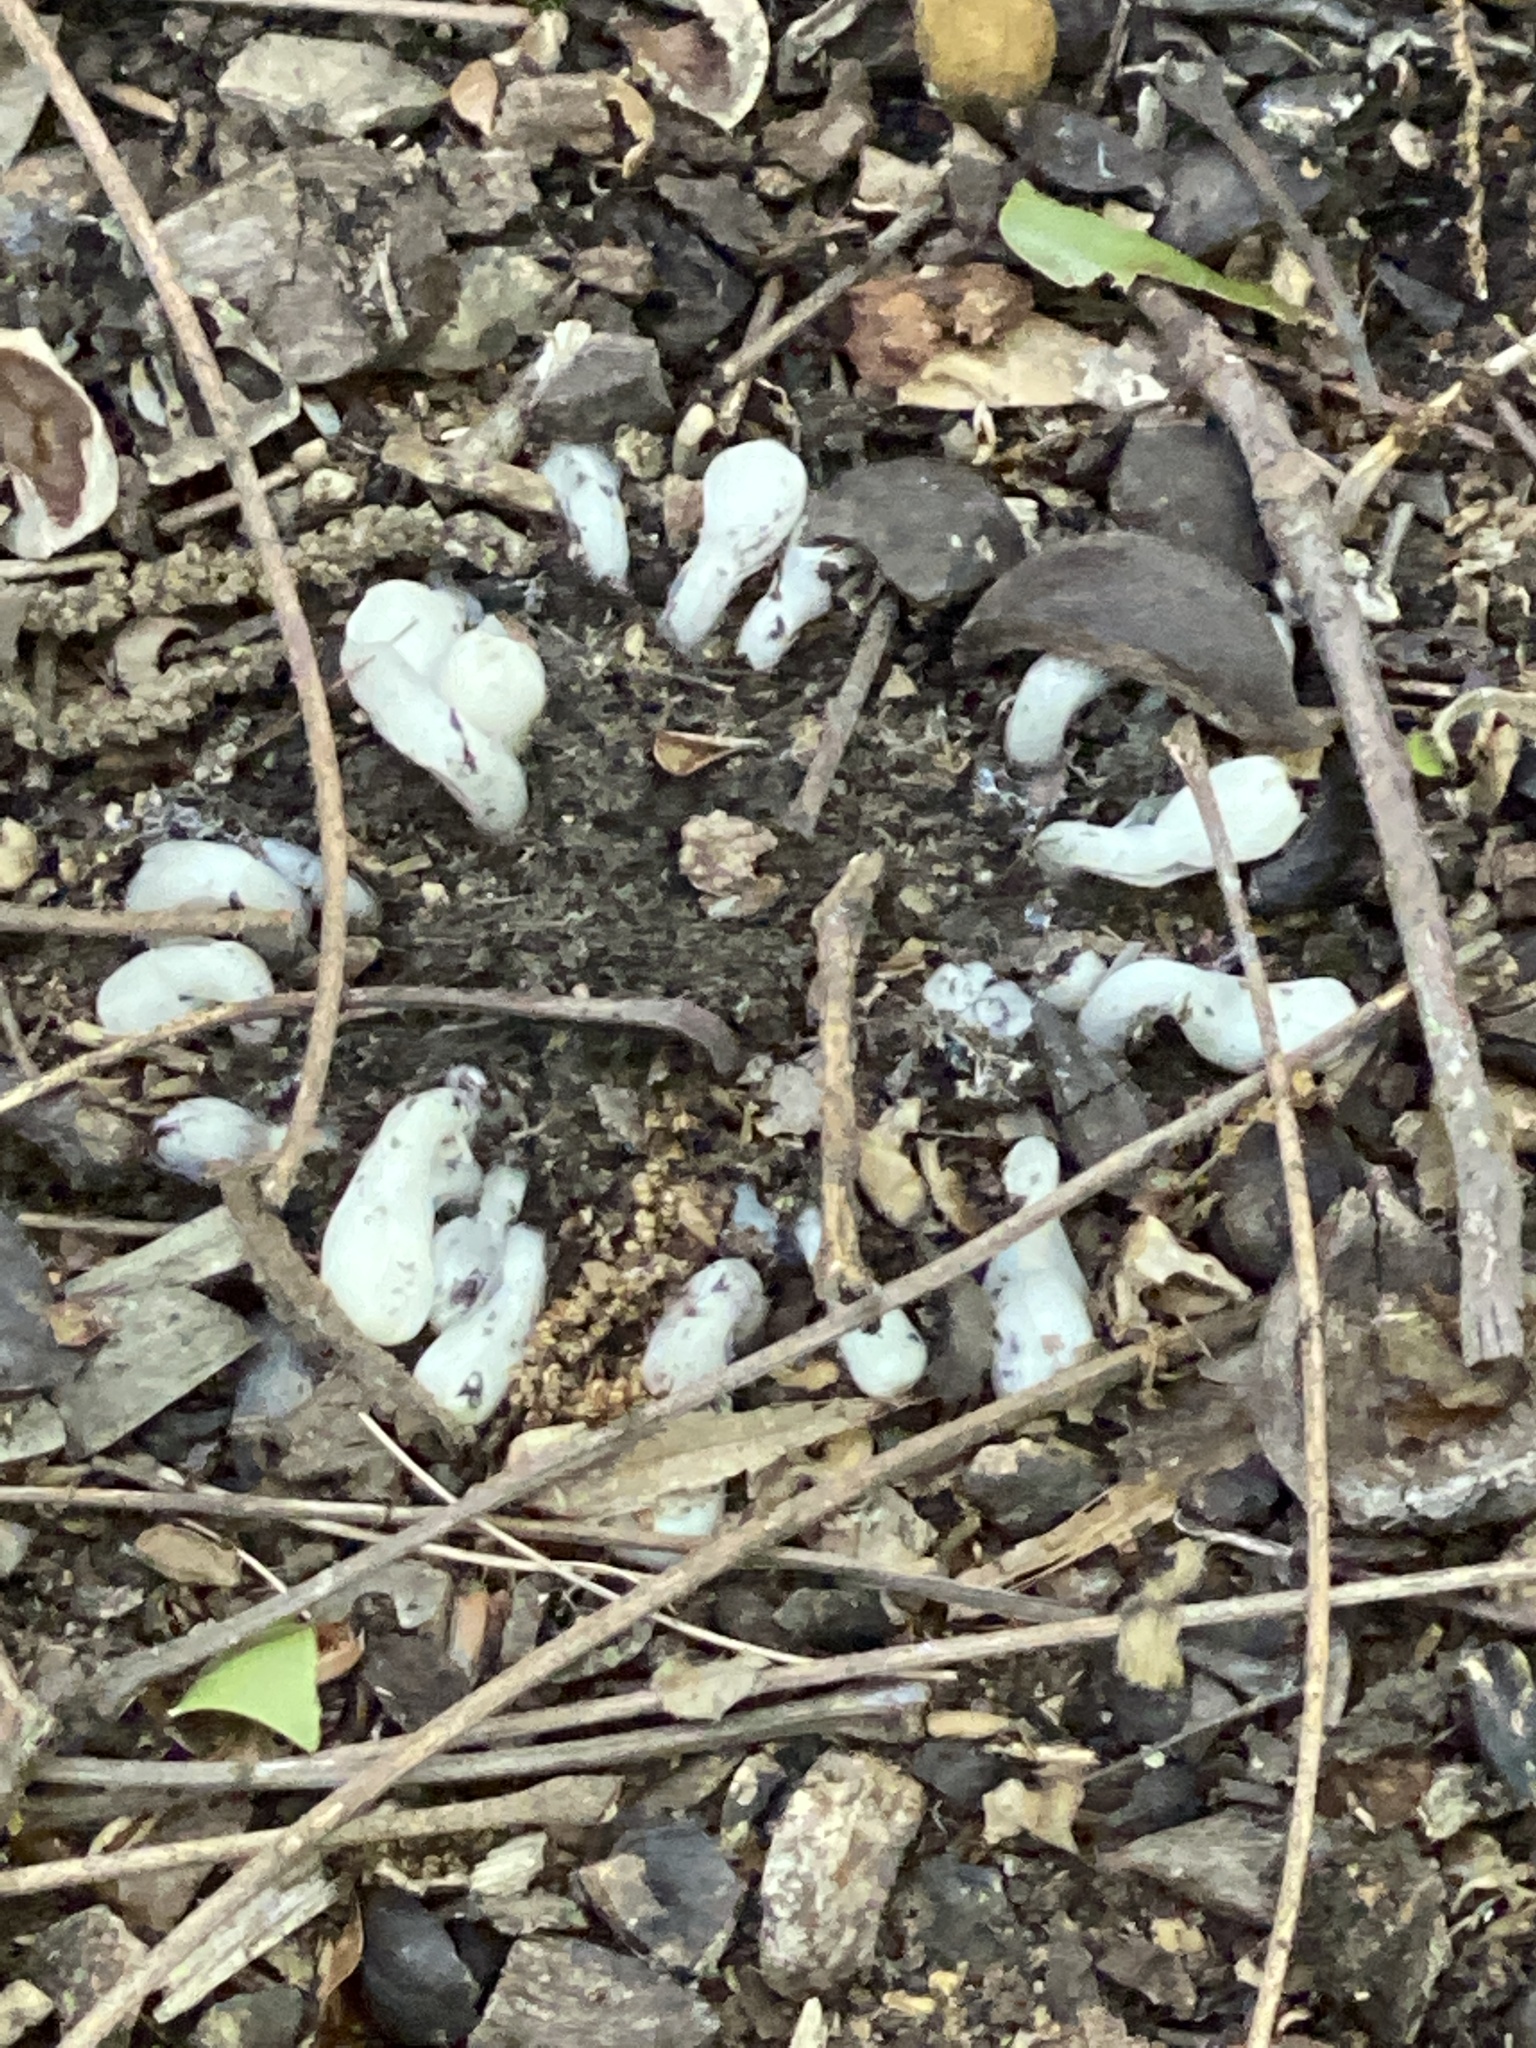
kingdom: Plantae
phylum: Tracheophyta
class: Magnoliopsida
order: Ericales
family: Ericaceae
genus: Monotropa
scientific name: Monotropa uniflora
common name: Convulsion root
